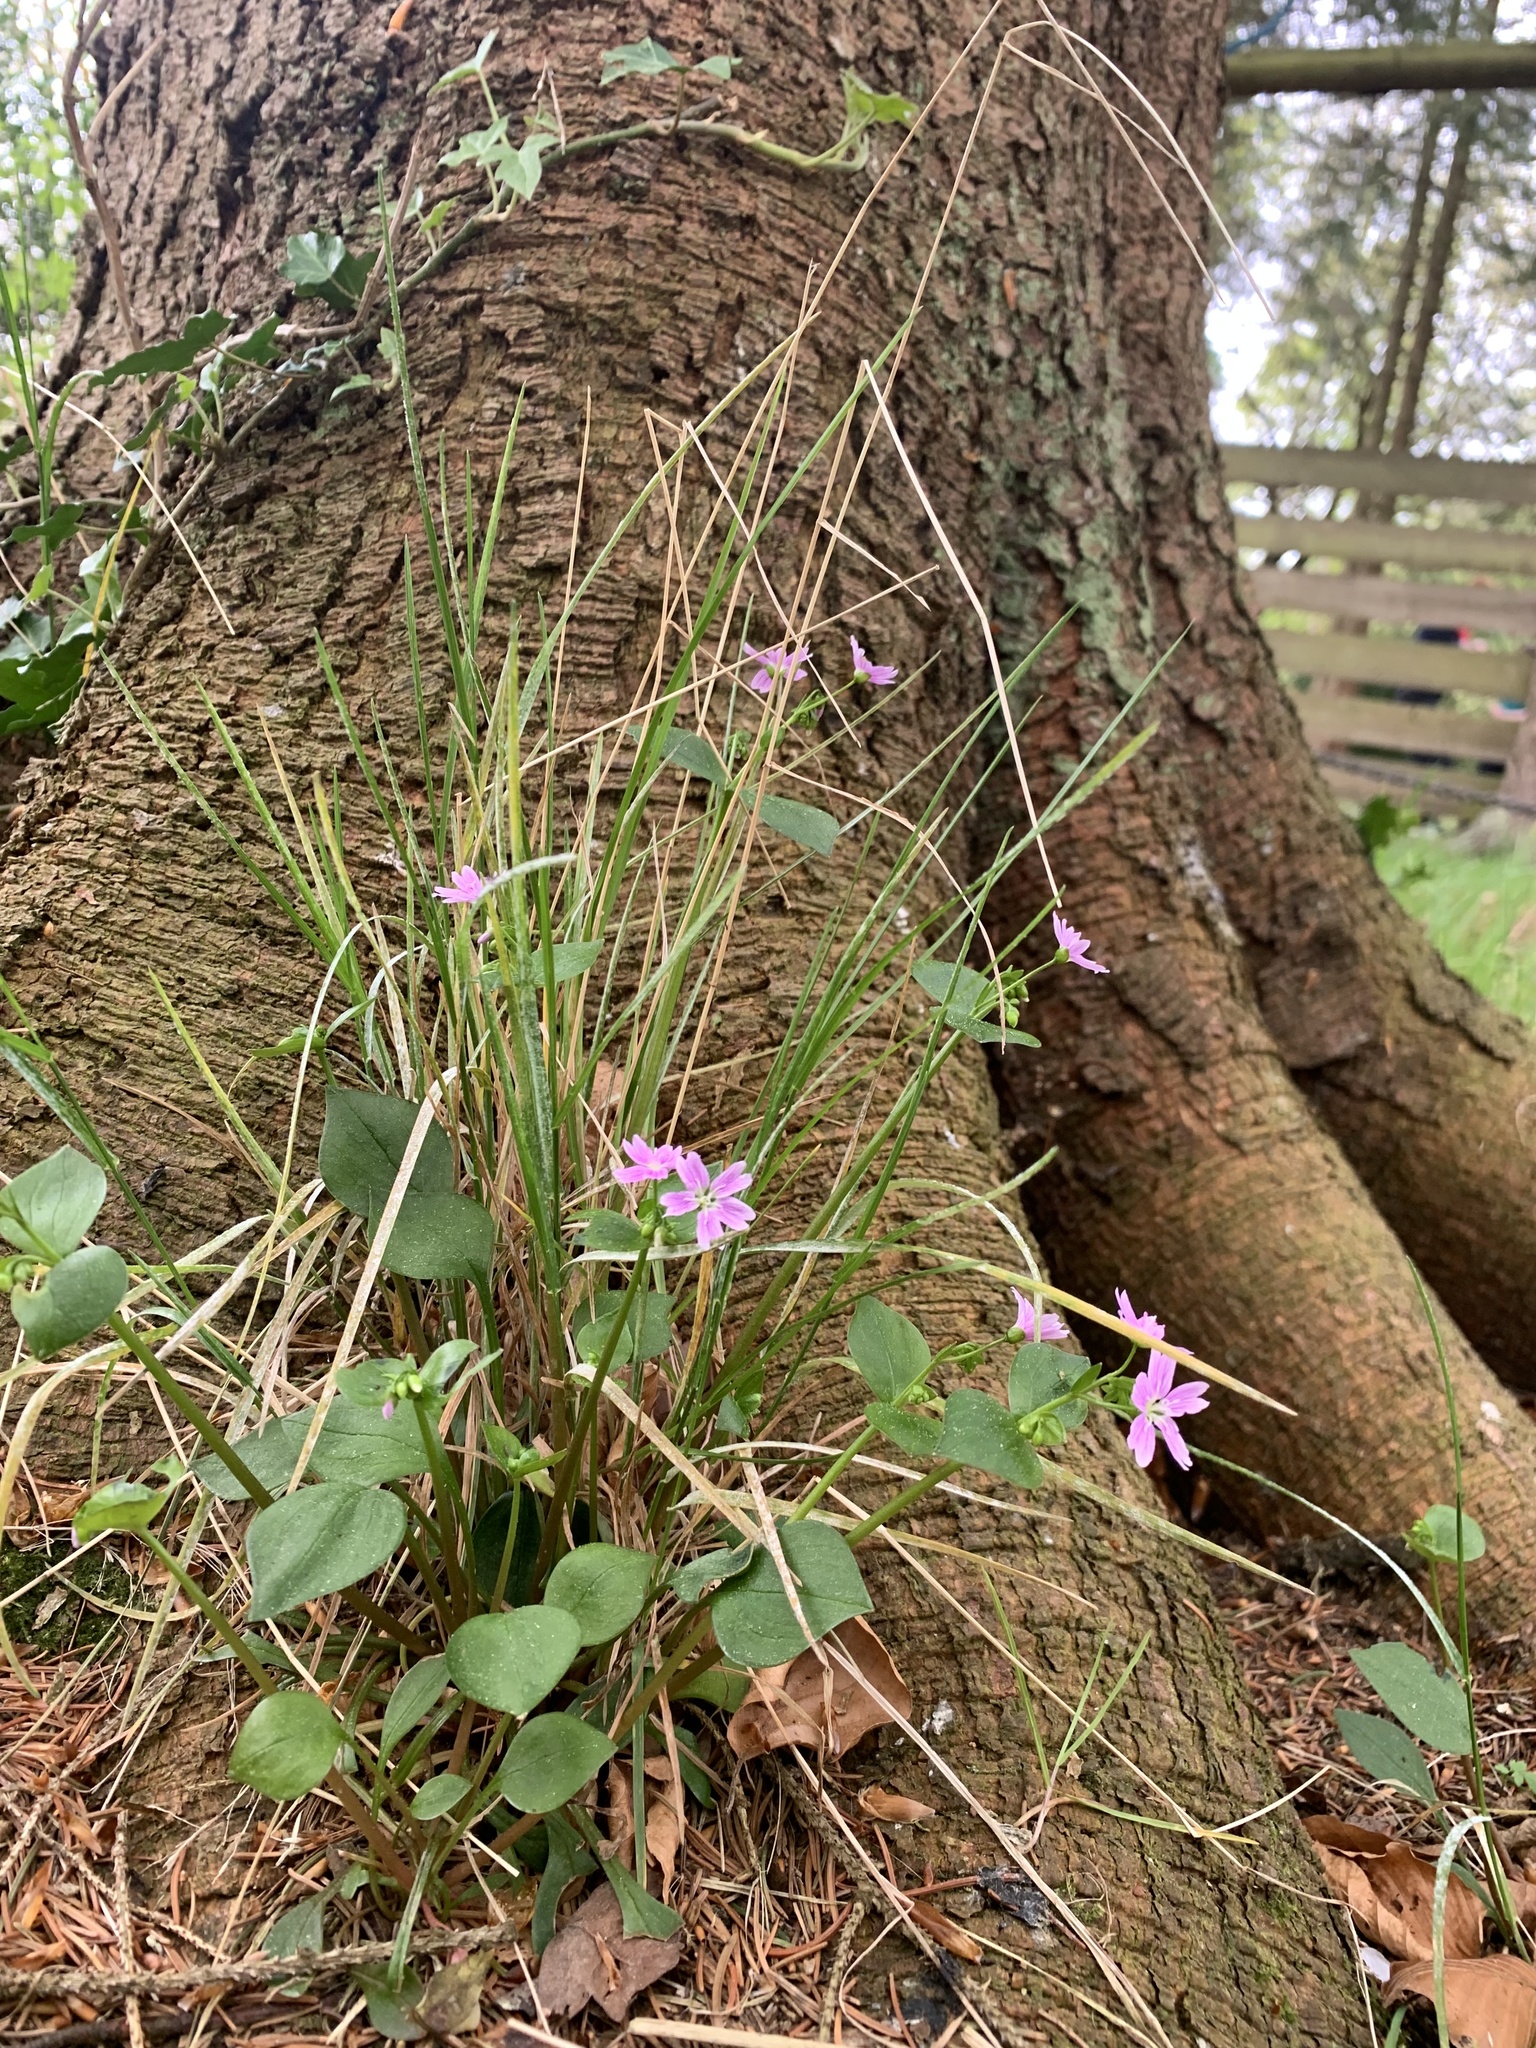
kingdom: Plantae
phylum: Tracheophyta
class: Magnoliopsida
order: Caryophyllales
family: Montiaceae
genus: Claytonia
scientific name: Claytonia sibirica
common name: Pink purslane
